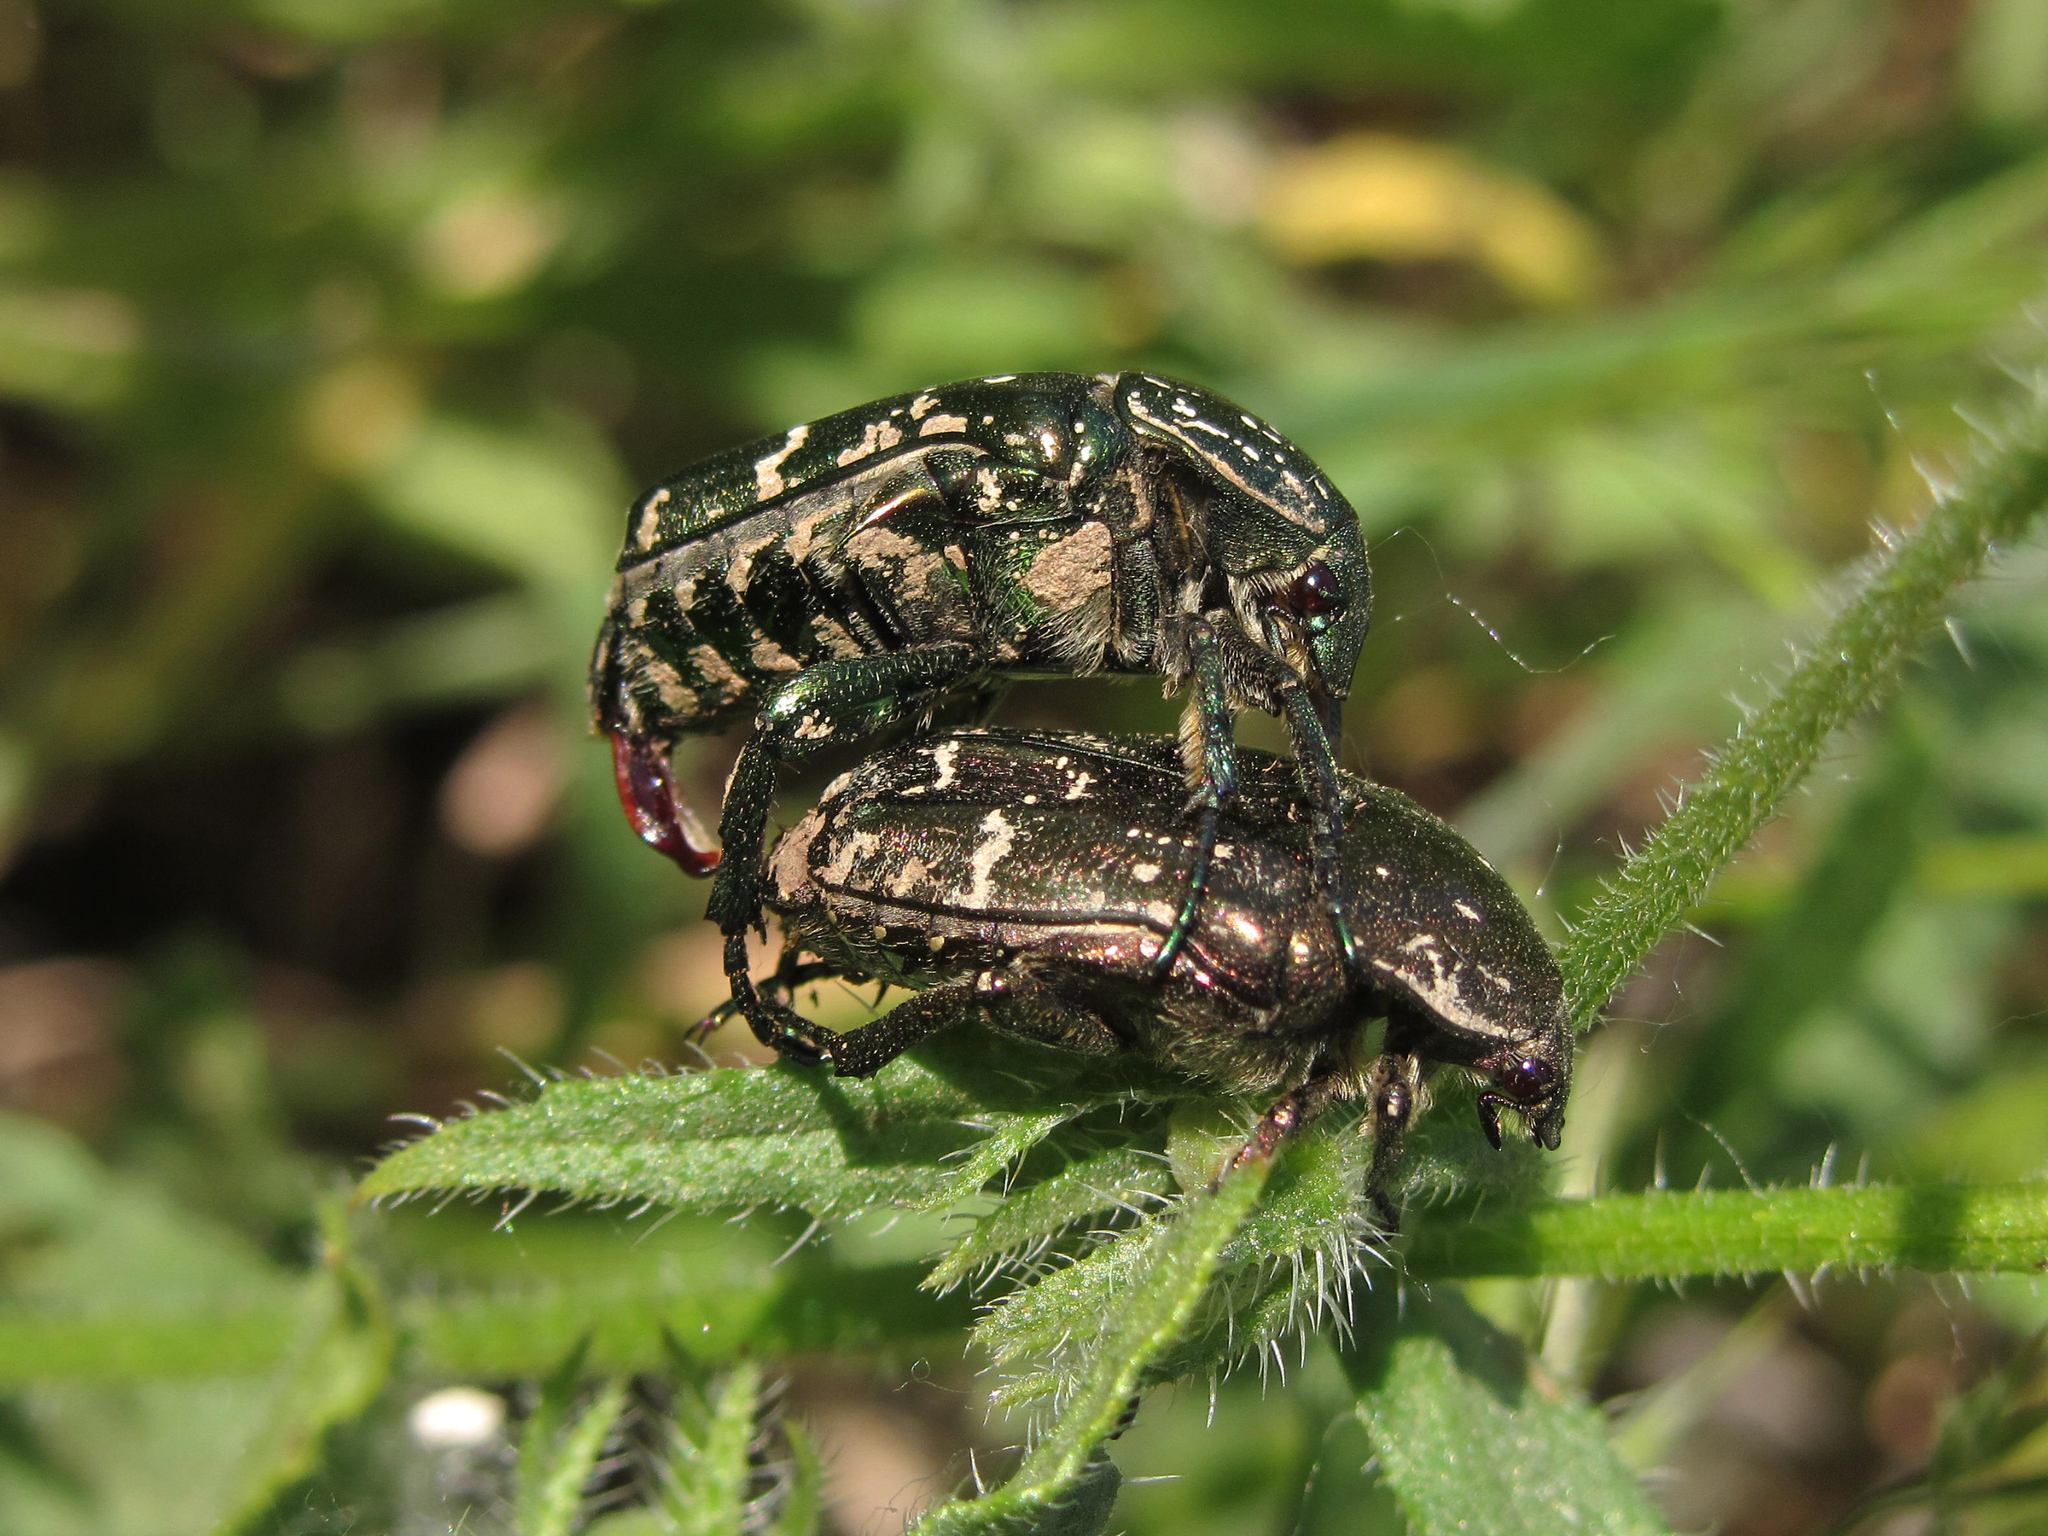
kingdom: Animalia
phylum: Arthropoda
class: Insecta
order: Coleoptera
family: Scarabaeidae
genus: Protaetia
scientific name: Protaetia cuprea
